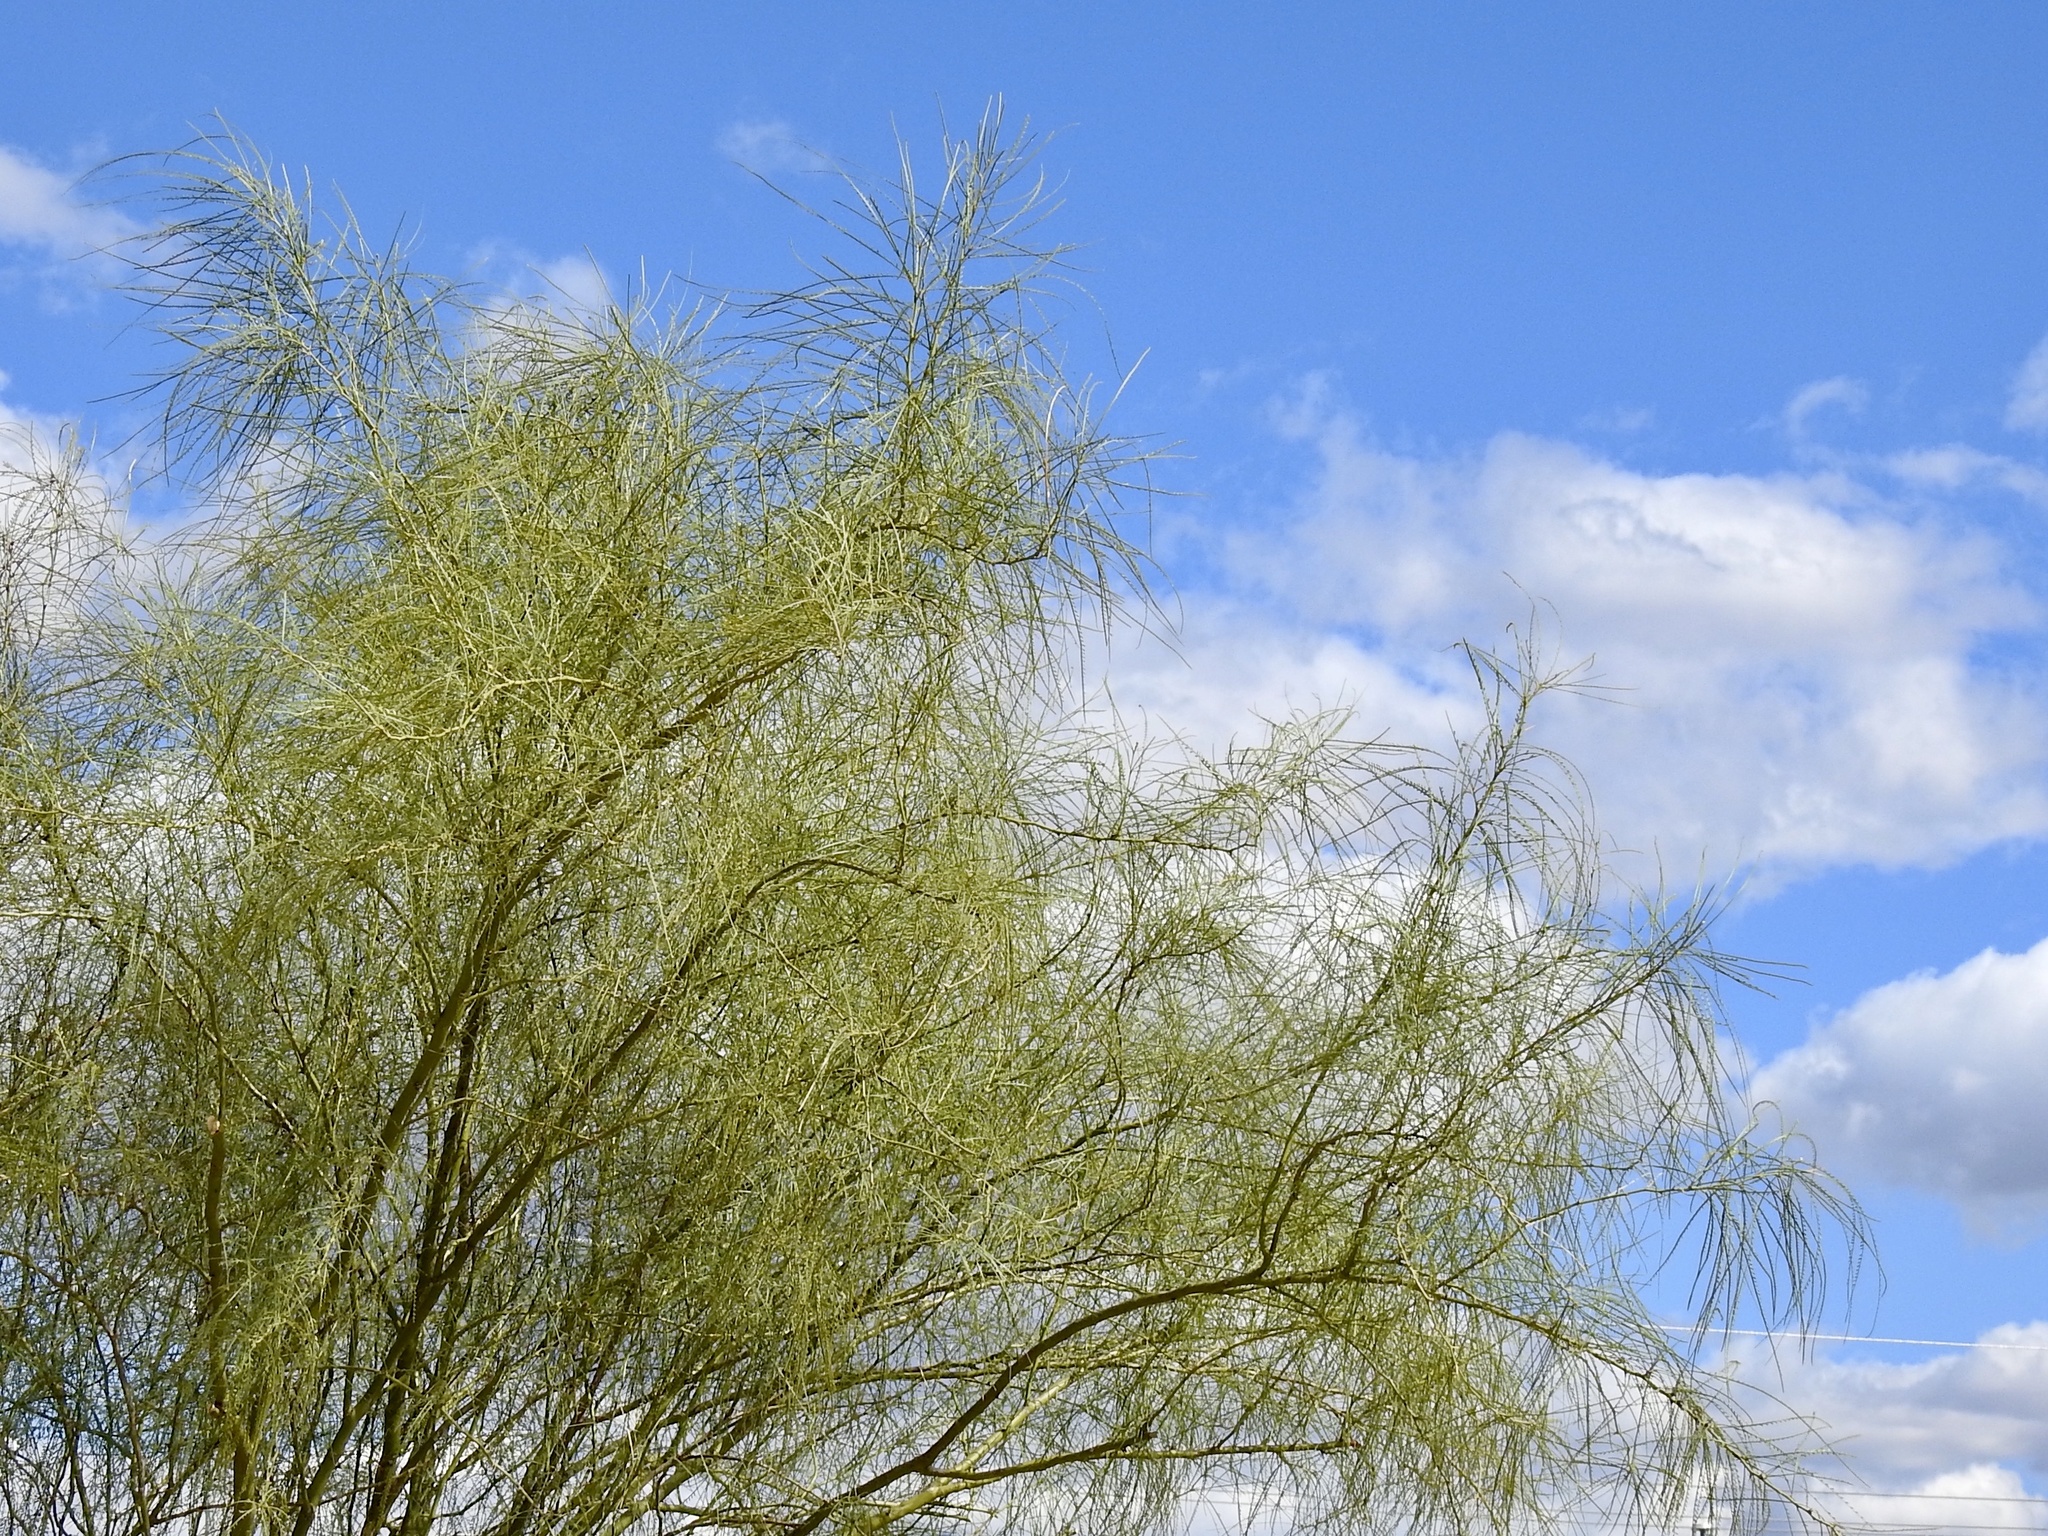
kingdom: Plantae
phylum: Tracheophyta
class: Magnoliopsida
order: Fabales
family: Fabaceae
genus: Parkinsonia
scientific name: Parkinsonia aculeata
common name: Jerusalem thorn
